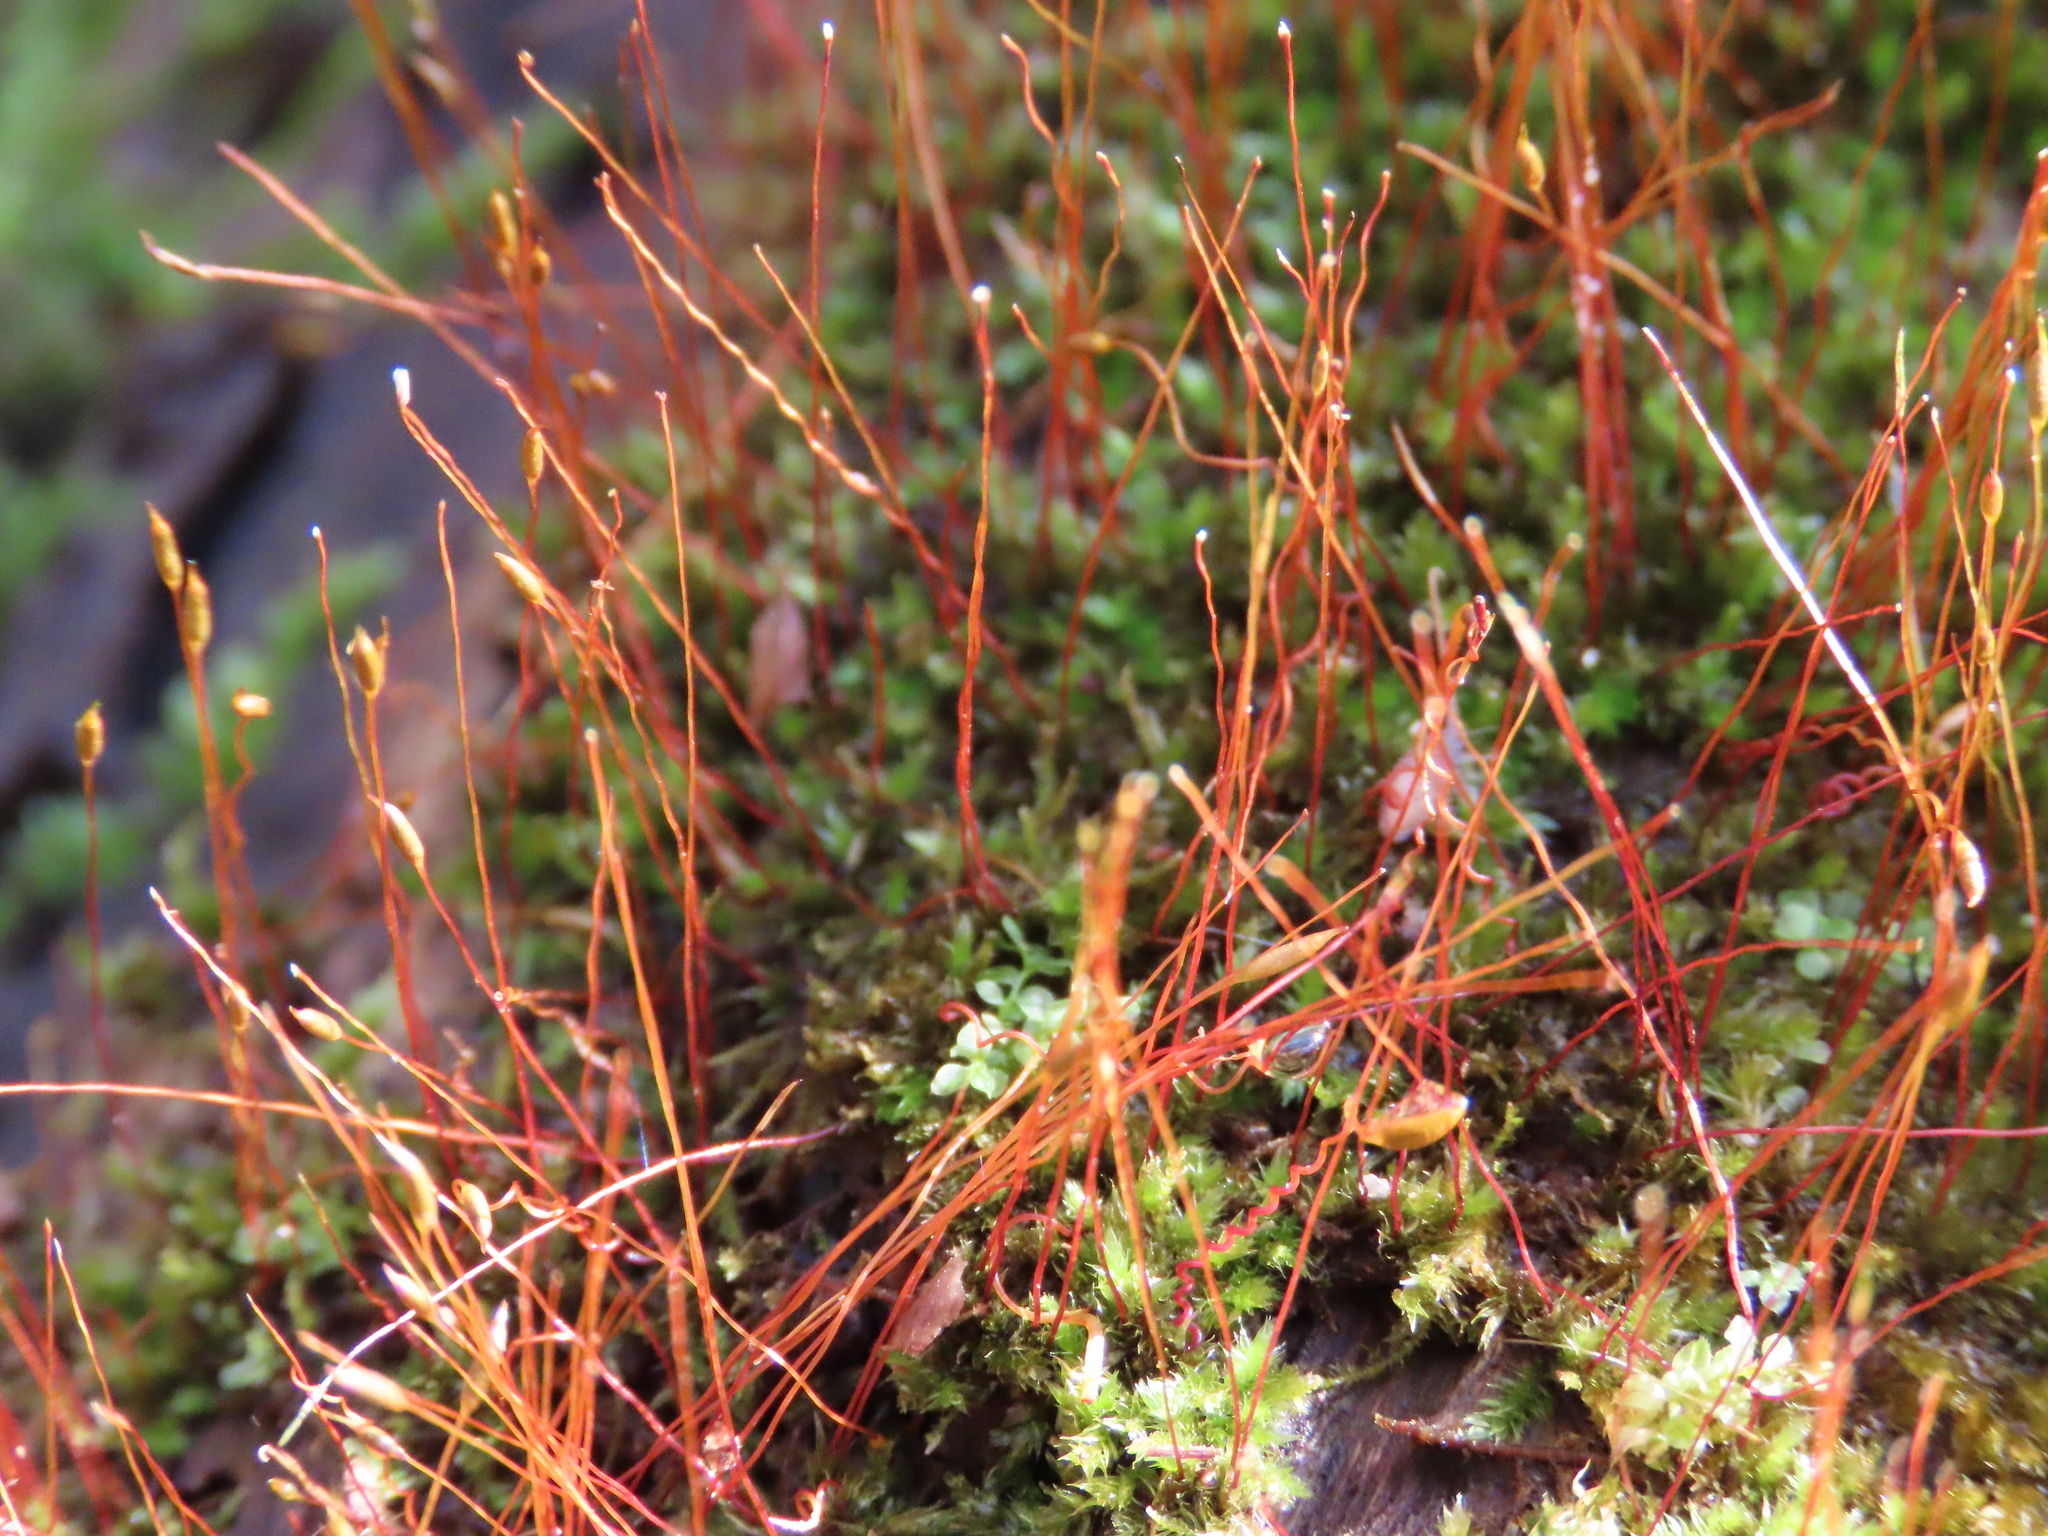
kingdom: Plantae
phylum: Bryophyta
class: Bryopsida
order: Hypnales
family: Pylaisiadelphaceae
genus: Platygyrium
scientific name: Platygyrium repens
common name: Flat-brocade moss
